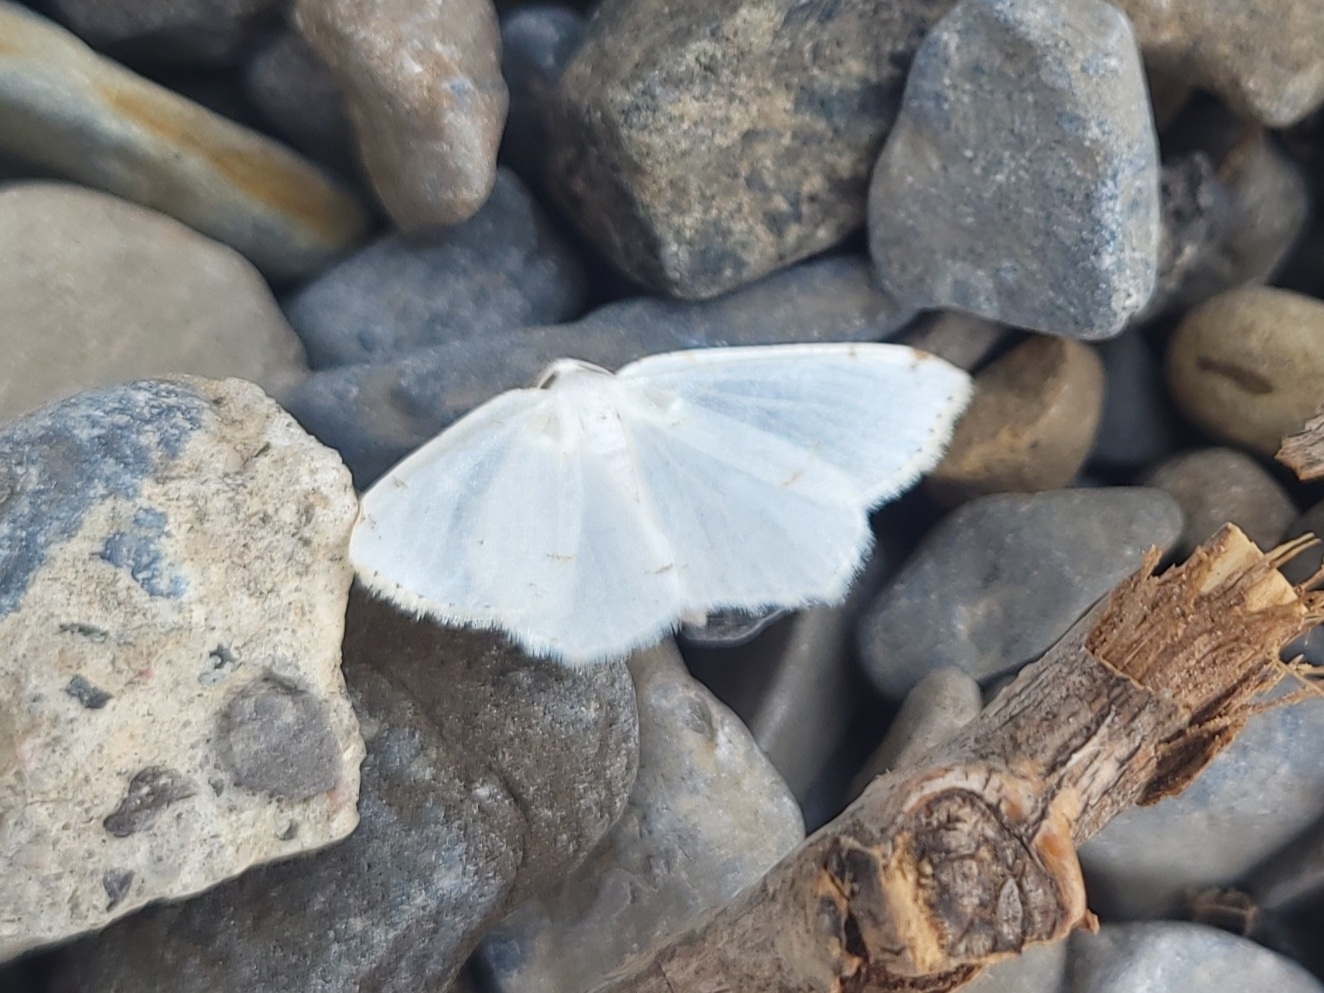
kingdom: Animalia
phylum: Arthropoda
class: Insecta
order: Lepidoptera
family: Geometridae
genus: Macaria
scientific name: Macaria pustularia
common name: Lesser maple spanworm moth
